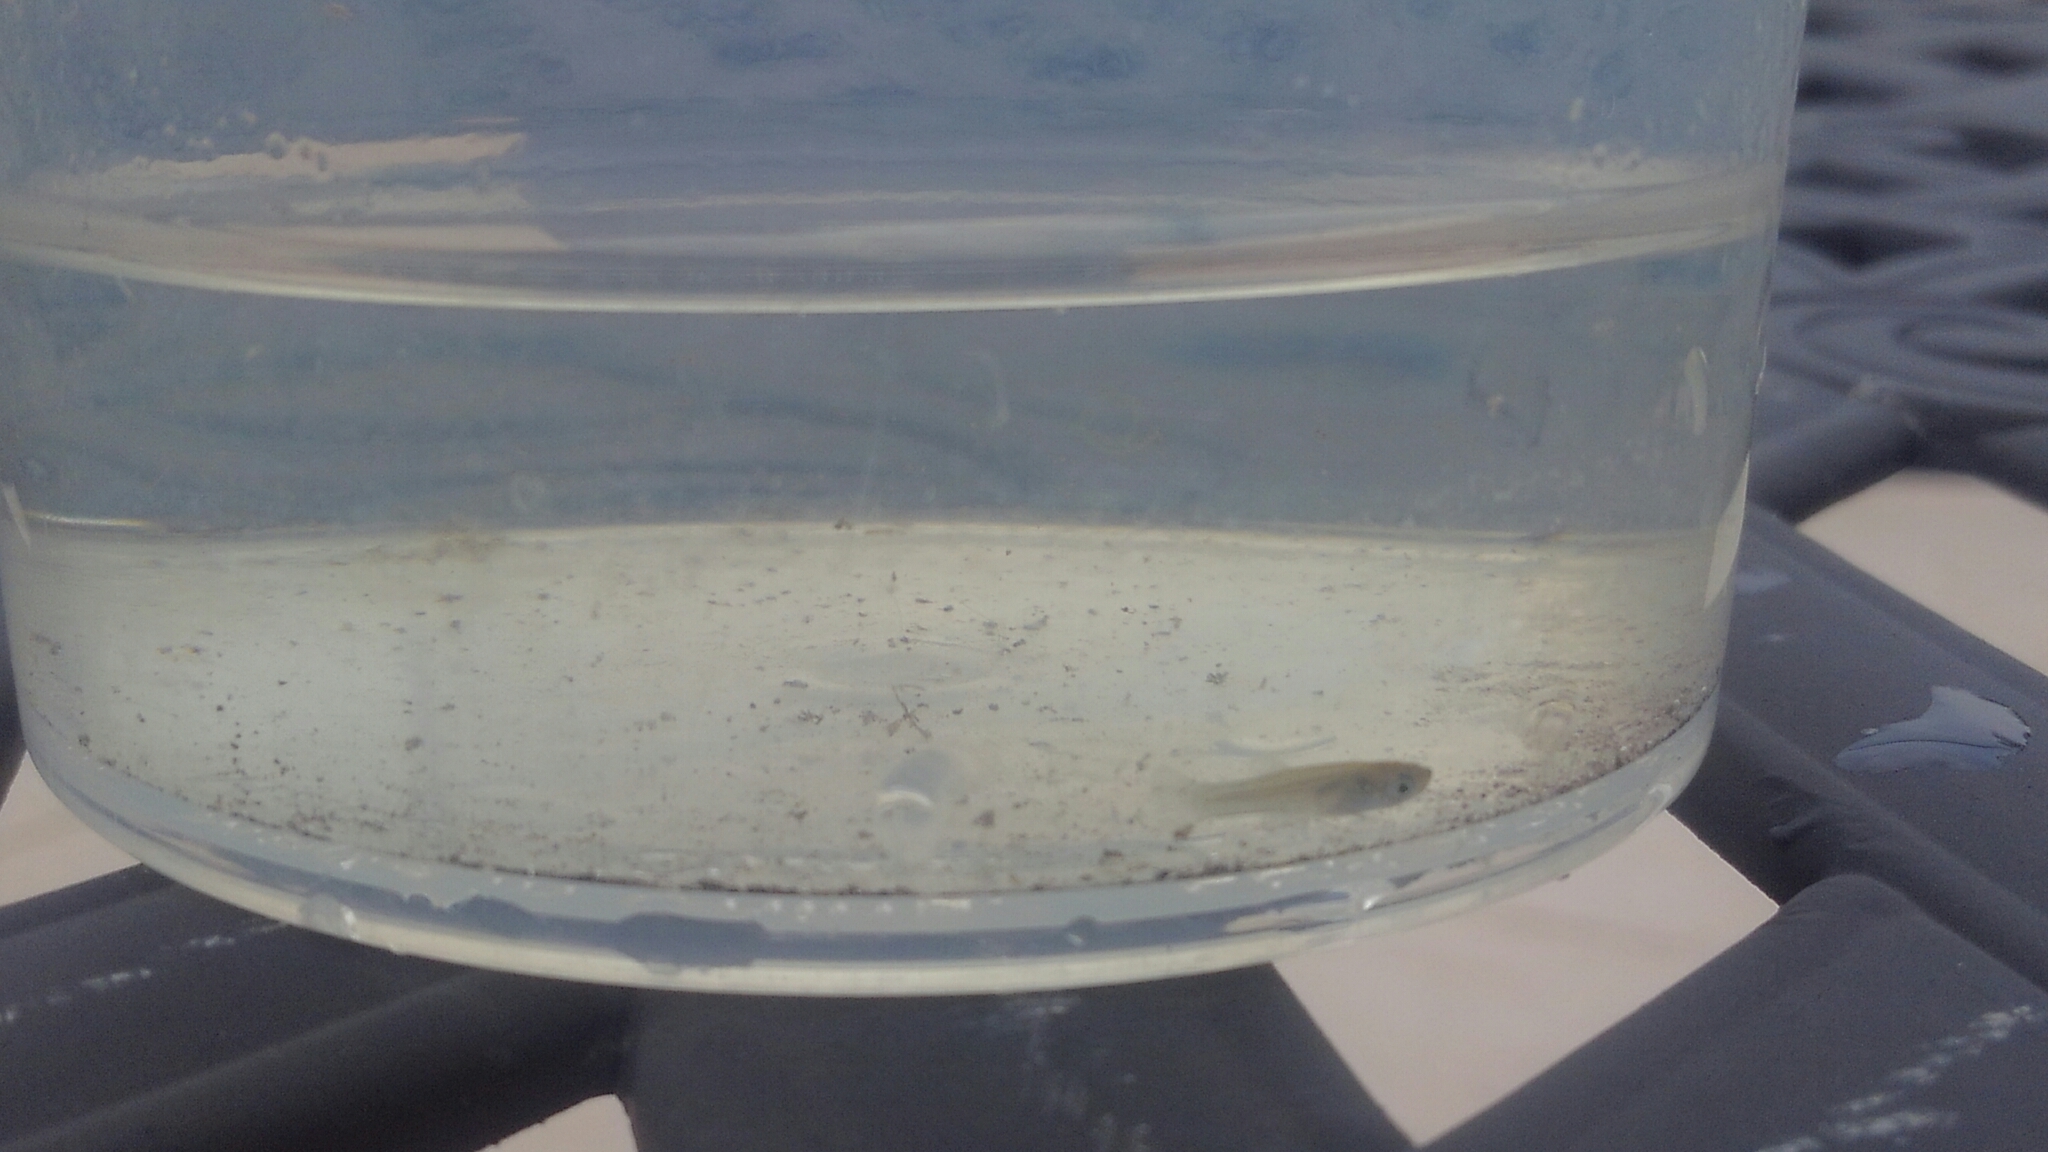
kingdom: Animalia
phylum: Chordata
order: Cyprinodontiformes
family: Poeciliidae
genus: Gambusia
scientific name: Gambusia holbrooki
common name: Eastern mosquitofish
